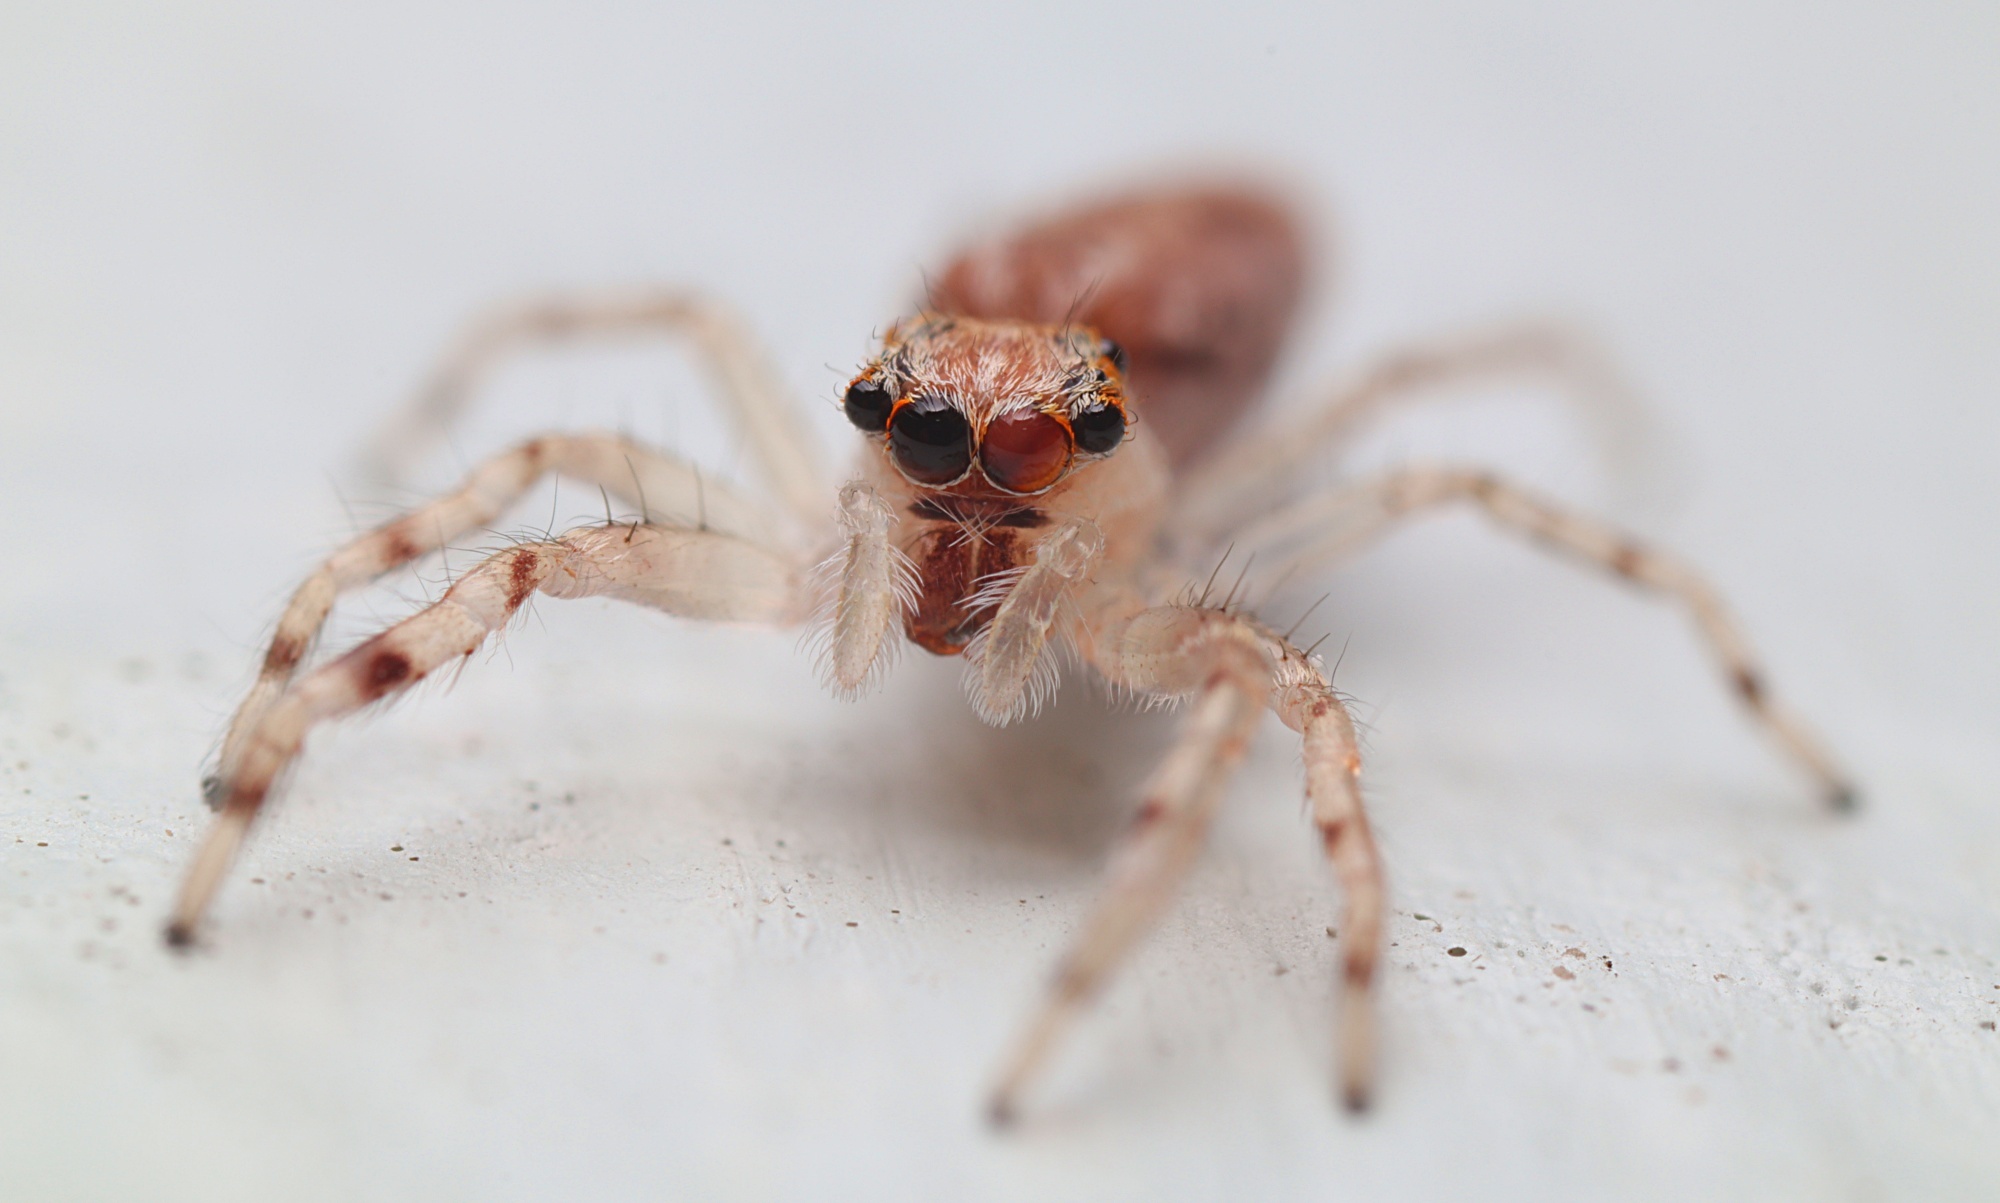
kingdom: Animalia
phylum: Arthropoda
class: Arachnida
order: Araneae
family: Salticidae
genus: Helpis
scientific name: Helpis minitabunda
